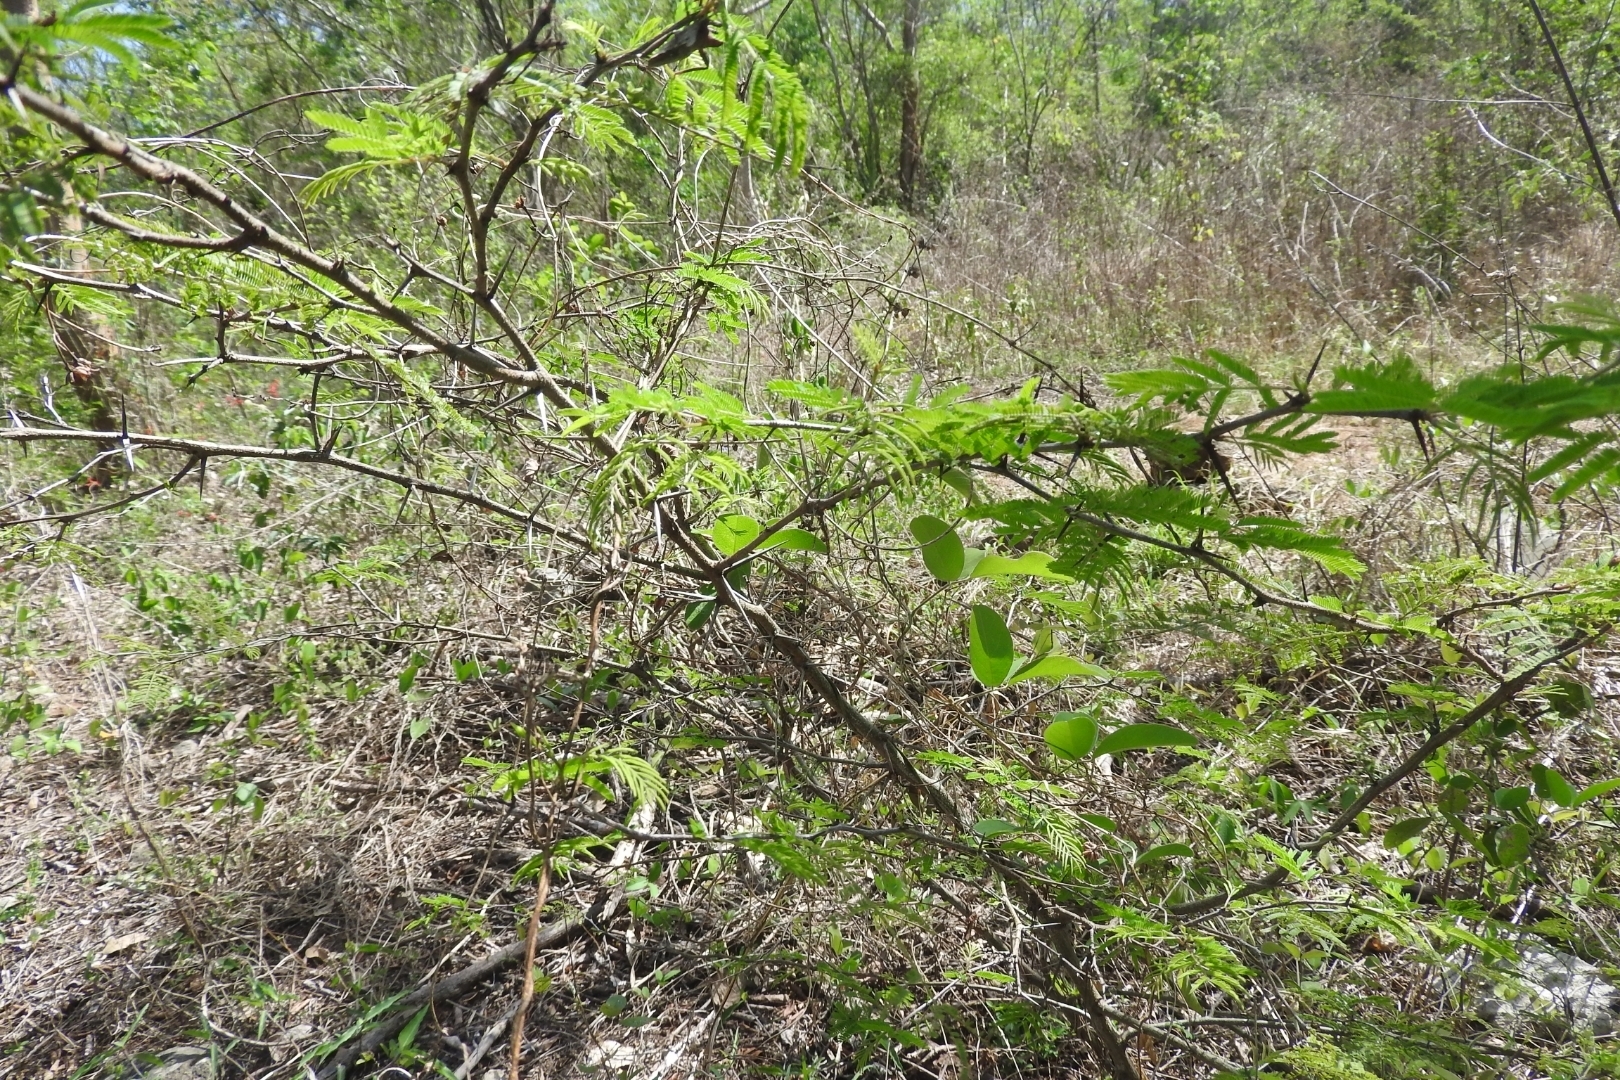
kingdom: Plantae
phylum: Tracheophyta
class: Magnoliopsida
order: Fabales
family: Fabaceae
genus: Vachellia
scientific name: Vachellia farnesiana
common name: Sweet acacia
